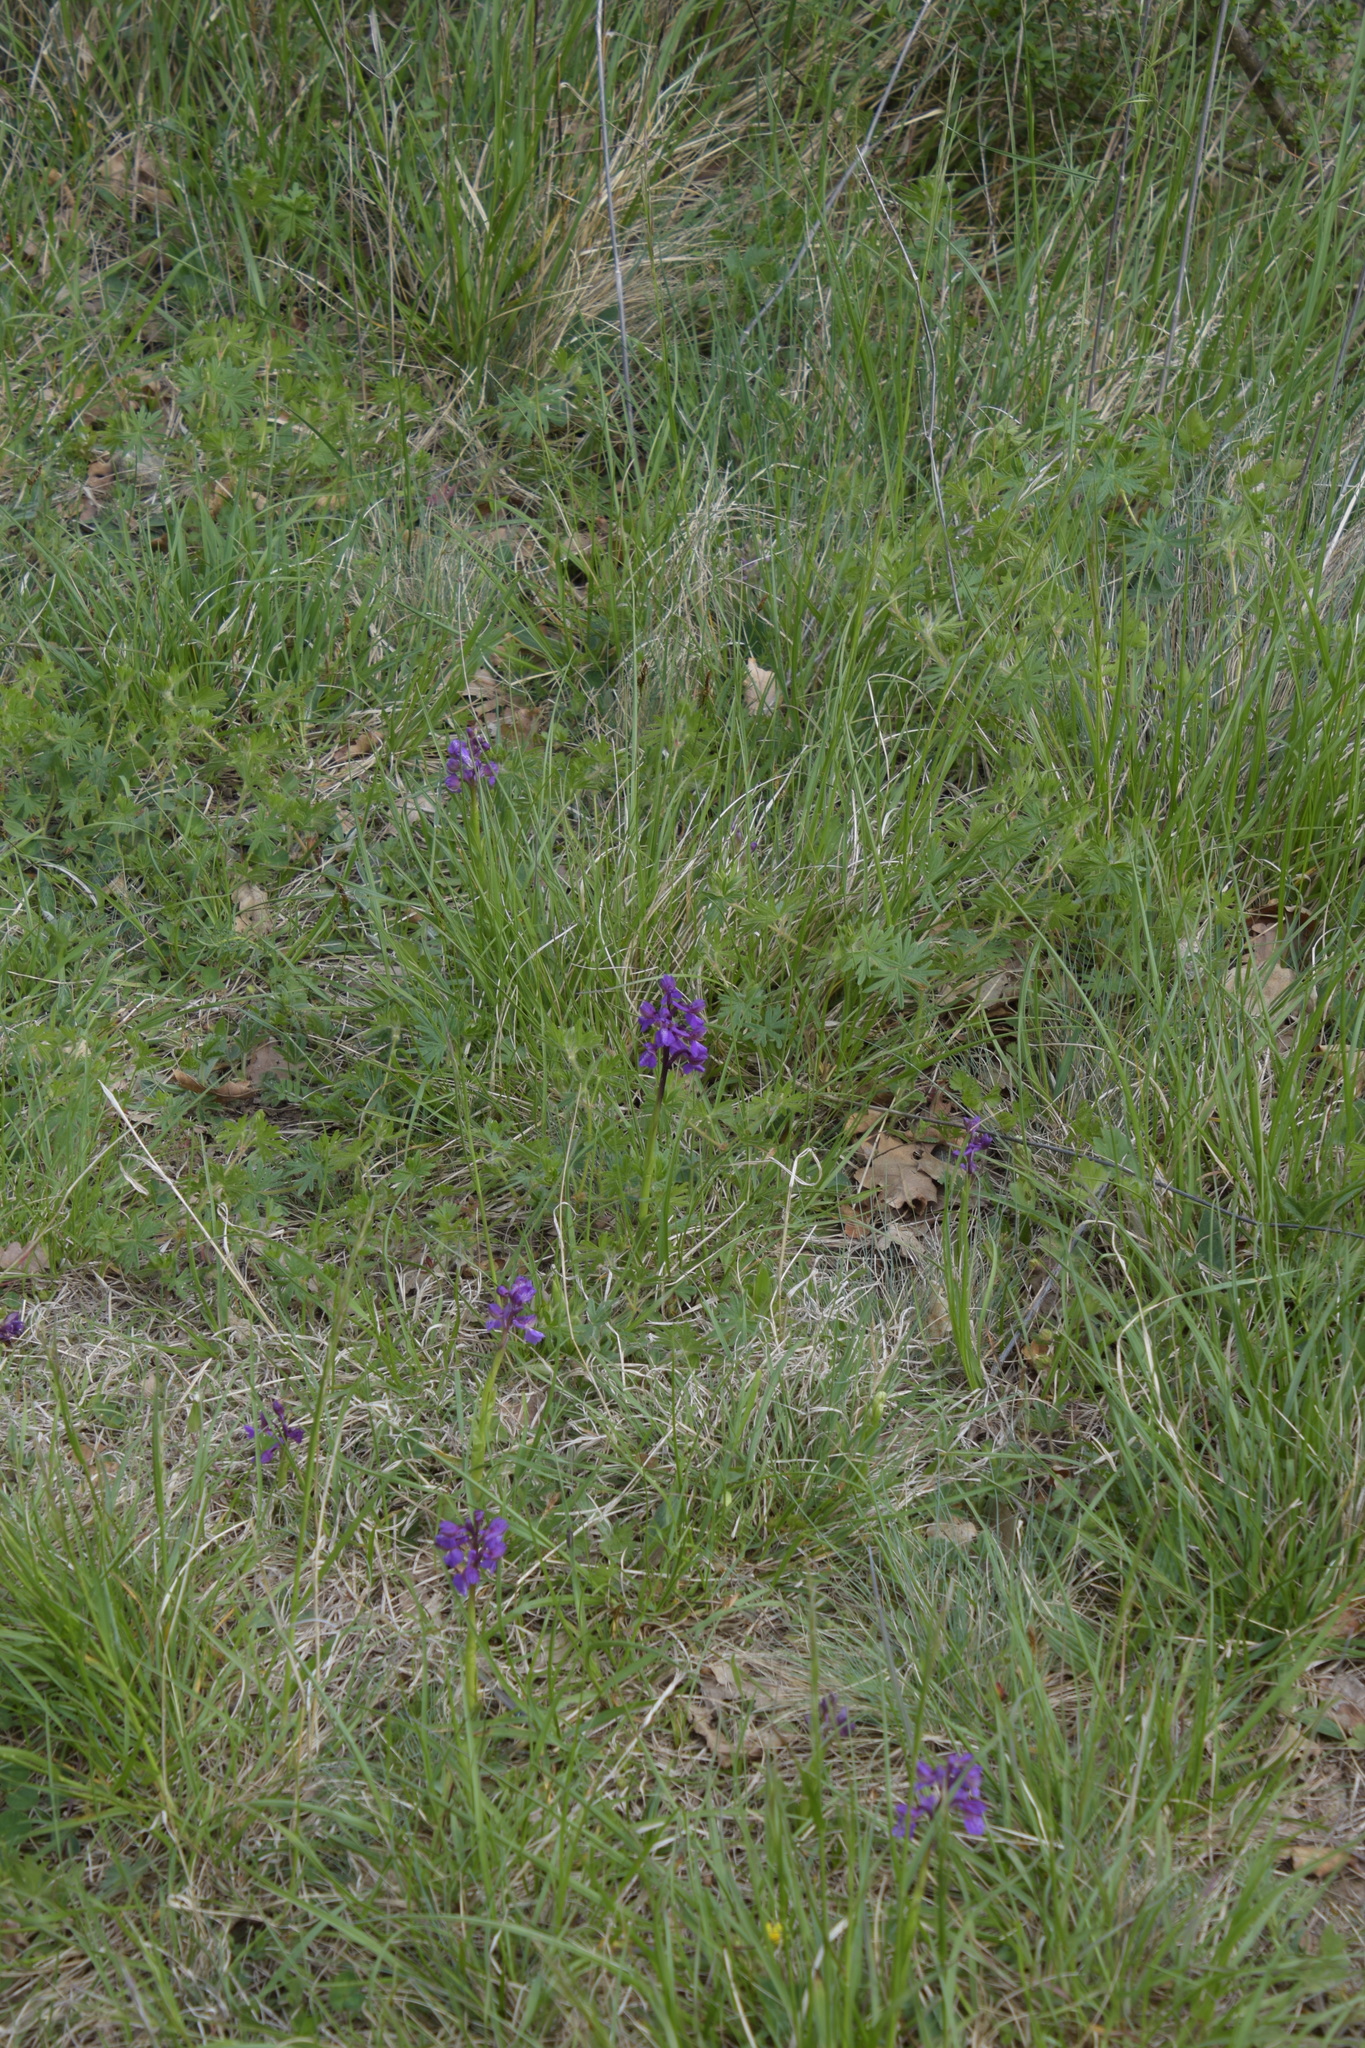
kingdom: Plantae
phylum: Tracheophyta
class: Liliopsida
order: Asparagales
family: Orchidaceae
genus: Anacamptis
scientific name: Anacamptis morio
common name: Green-winged orchid
